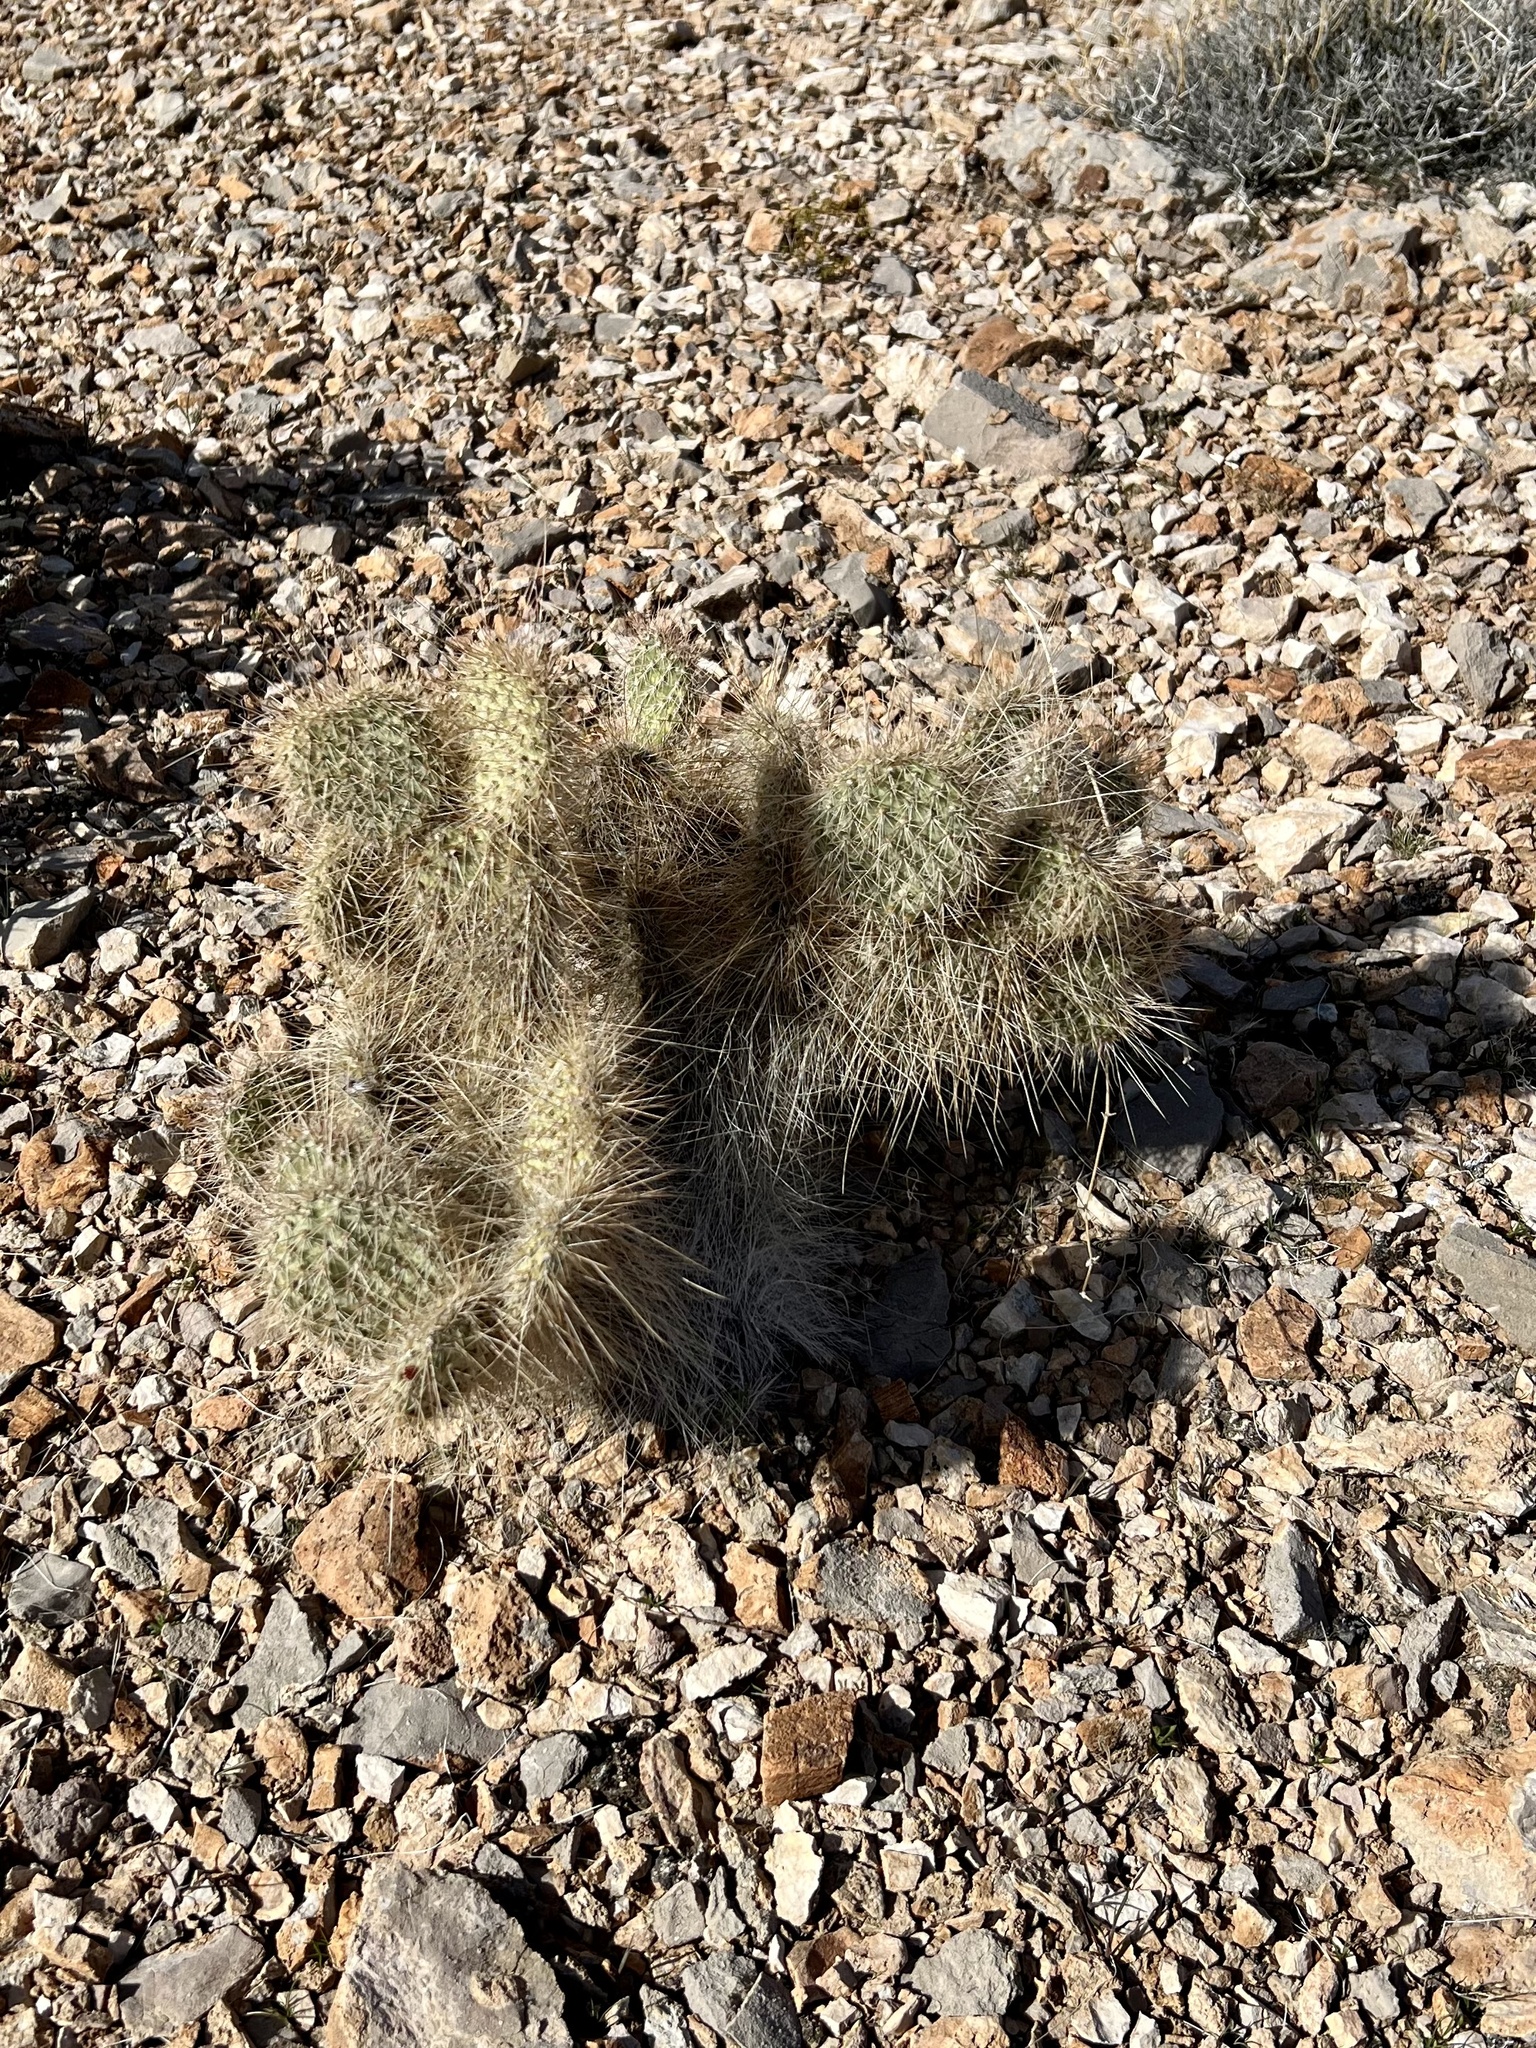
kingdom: Plantae
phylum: Tracheophyta
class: Magnoliopsida
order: Caryophyllales
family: Cactaceae
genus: Opuntia
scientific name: Opuntia polyacantha
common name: Plains prickly-pear
